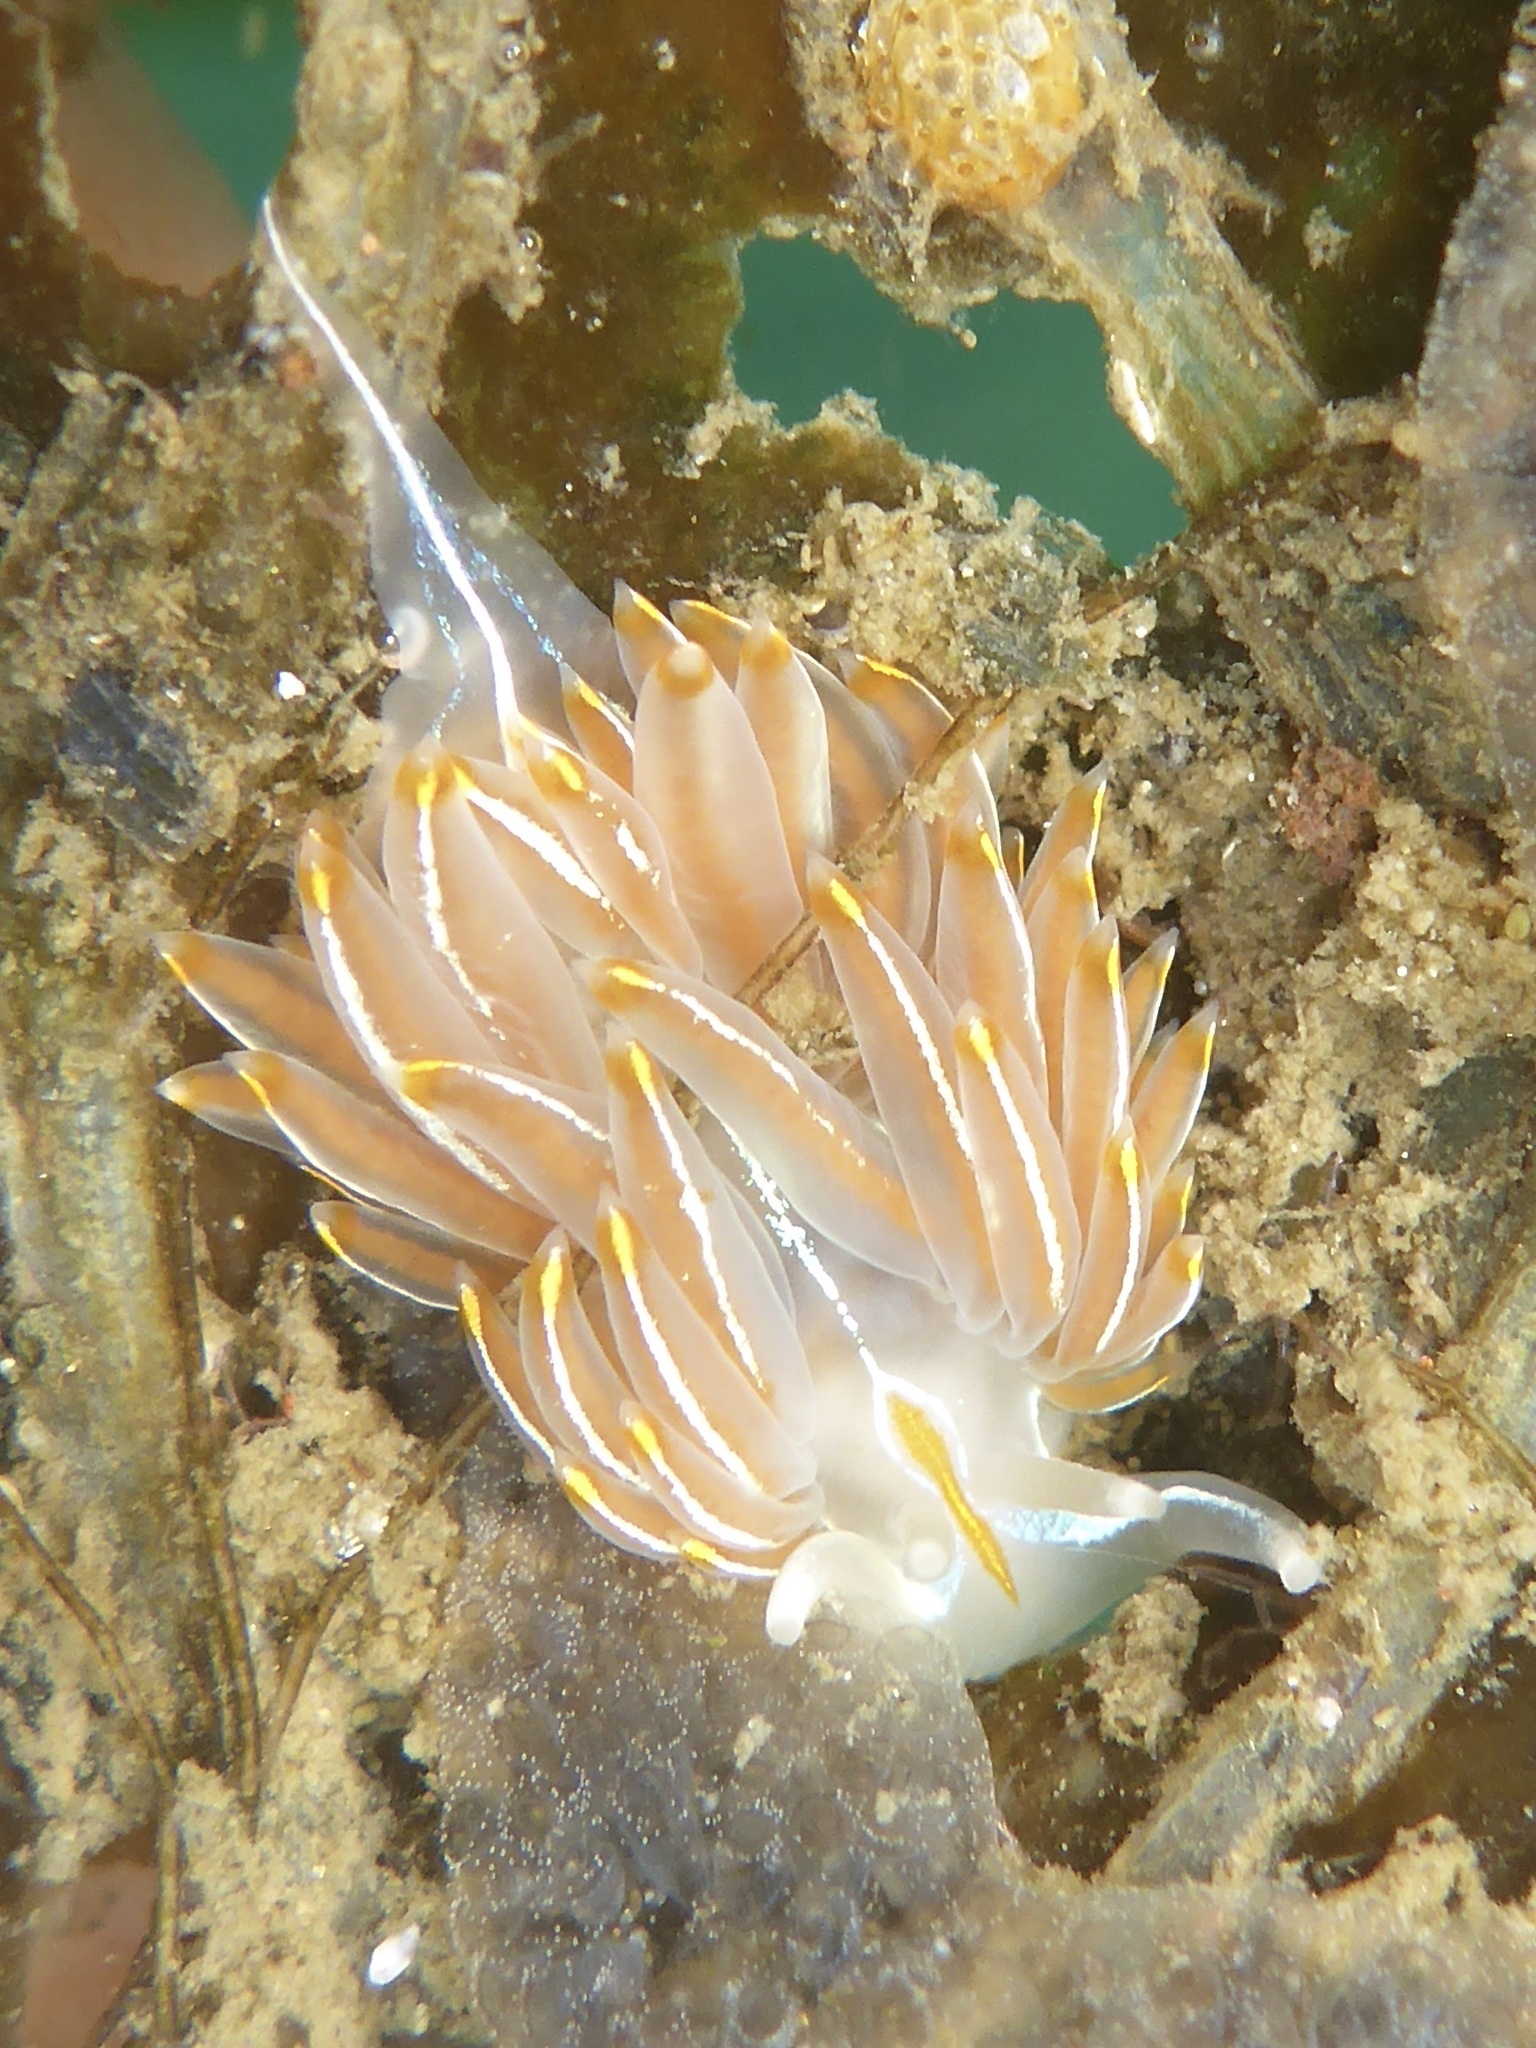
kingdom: Animalia
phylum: Mollusca
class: Gastropoda
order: Nudibranchia
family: Myrrhinidae
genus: Hermissenda
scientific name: Hermissenda crassicornis
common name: Hermissenda
